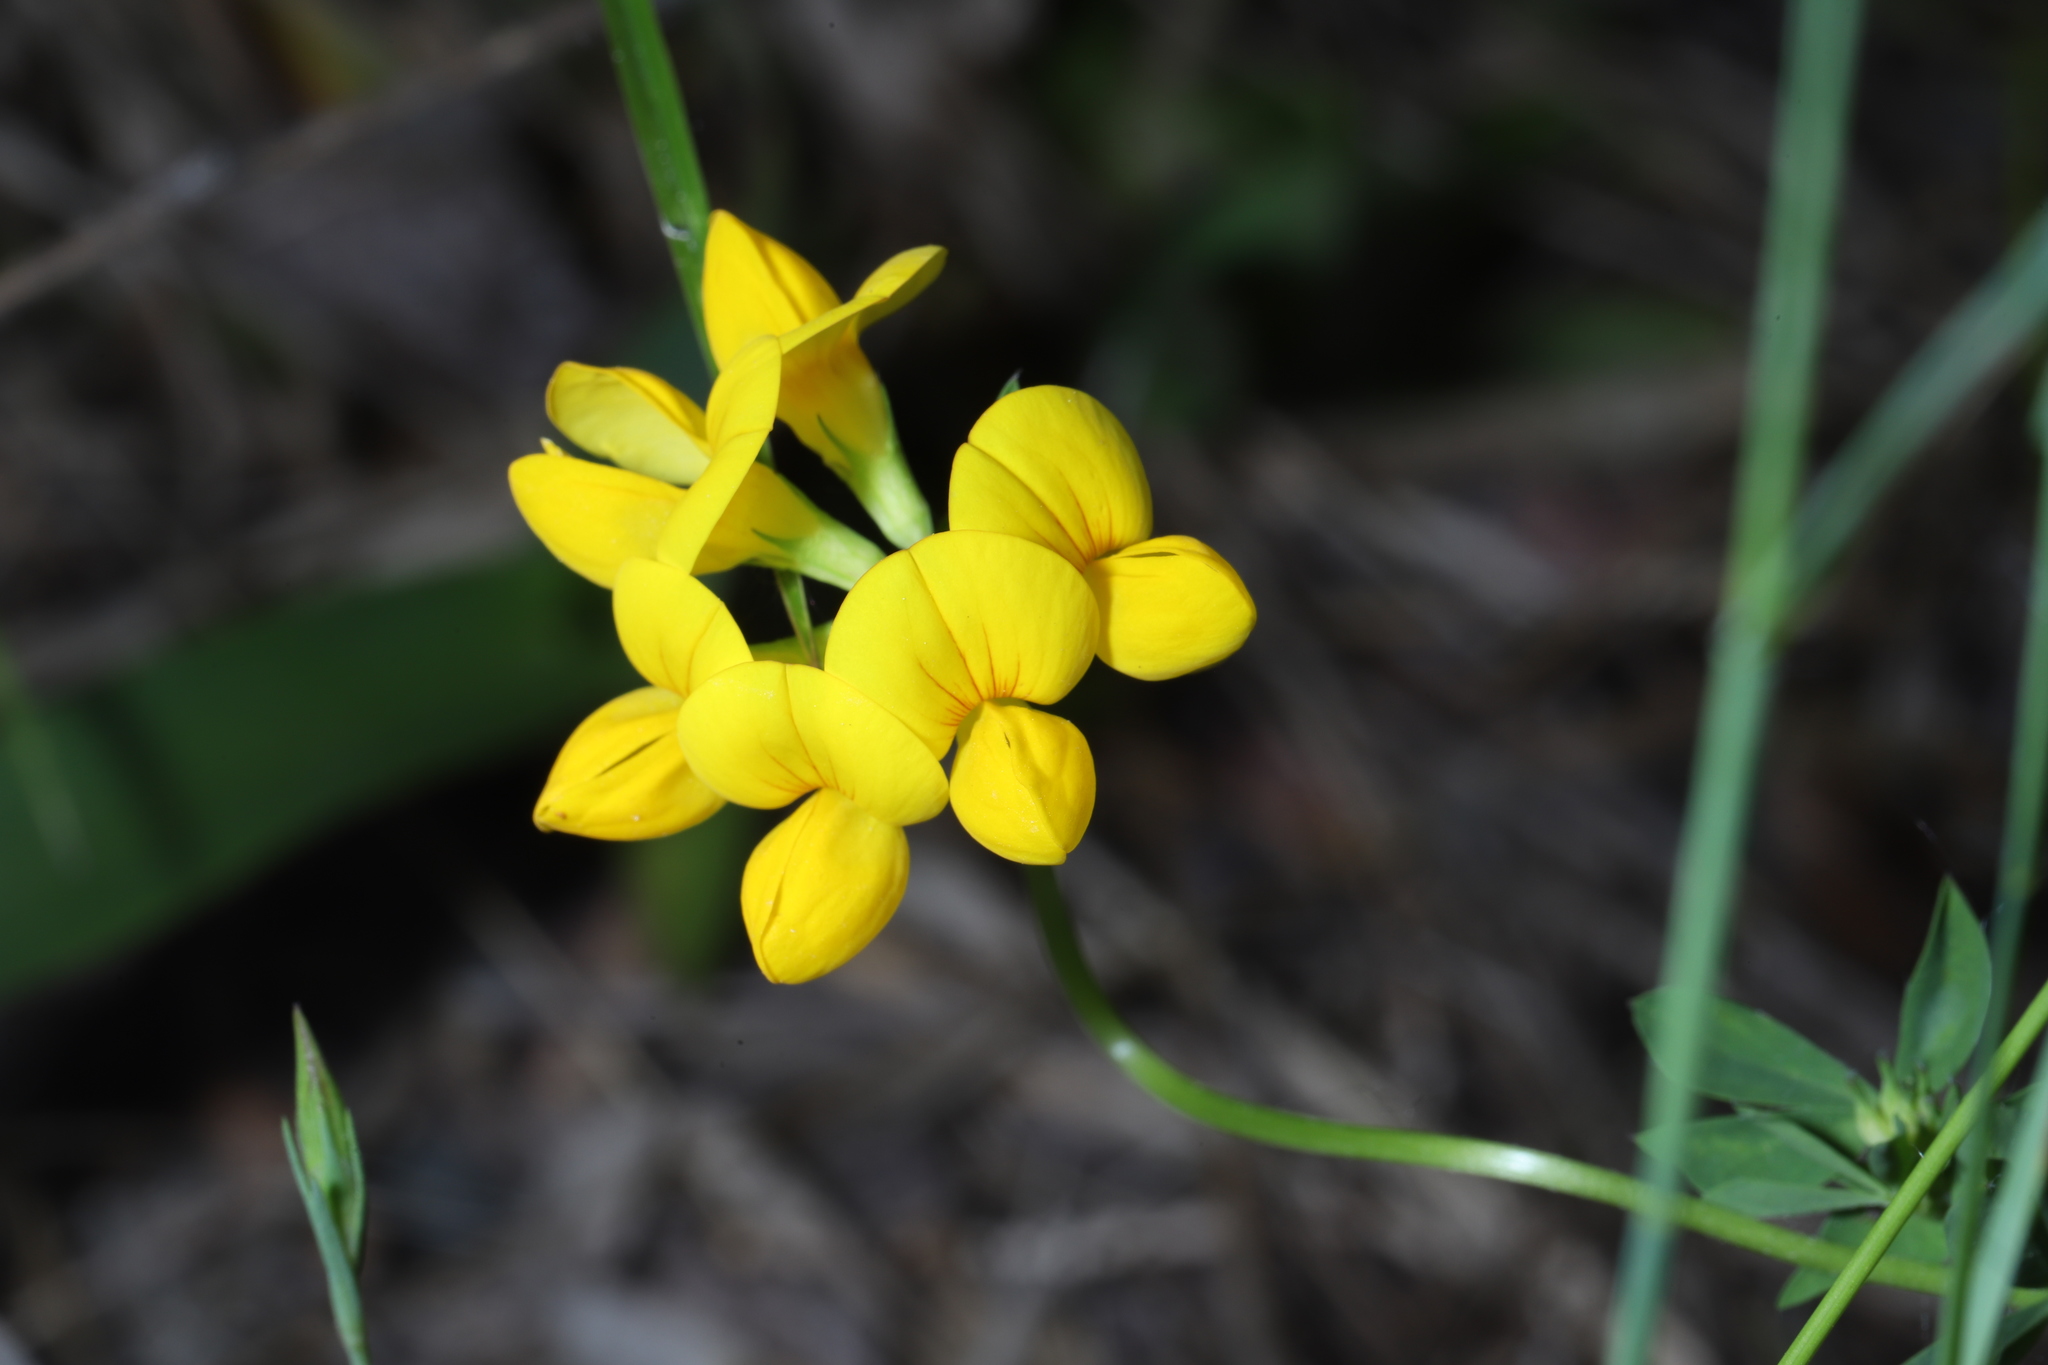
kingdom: Plantae
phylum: Tracheophyta
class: Magnoliopsida
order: Fabales
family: Fabaceae
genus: Lotus
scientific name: Lotus corniculatus
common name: Common bird's-foot-trefoil
